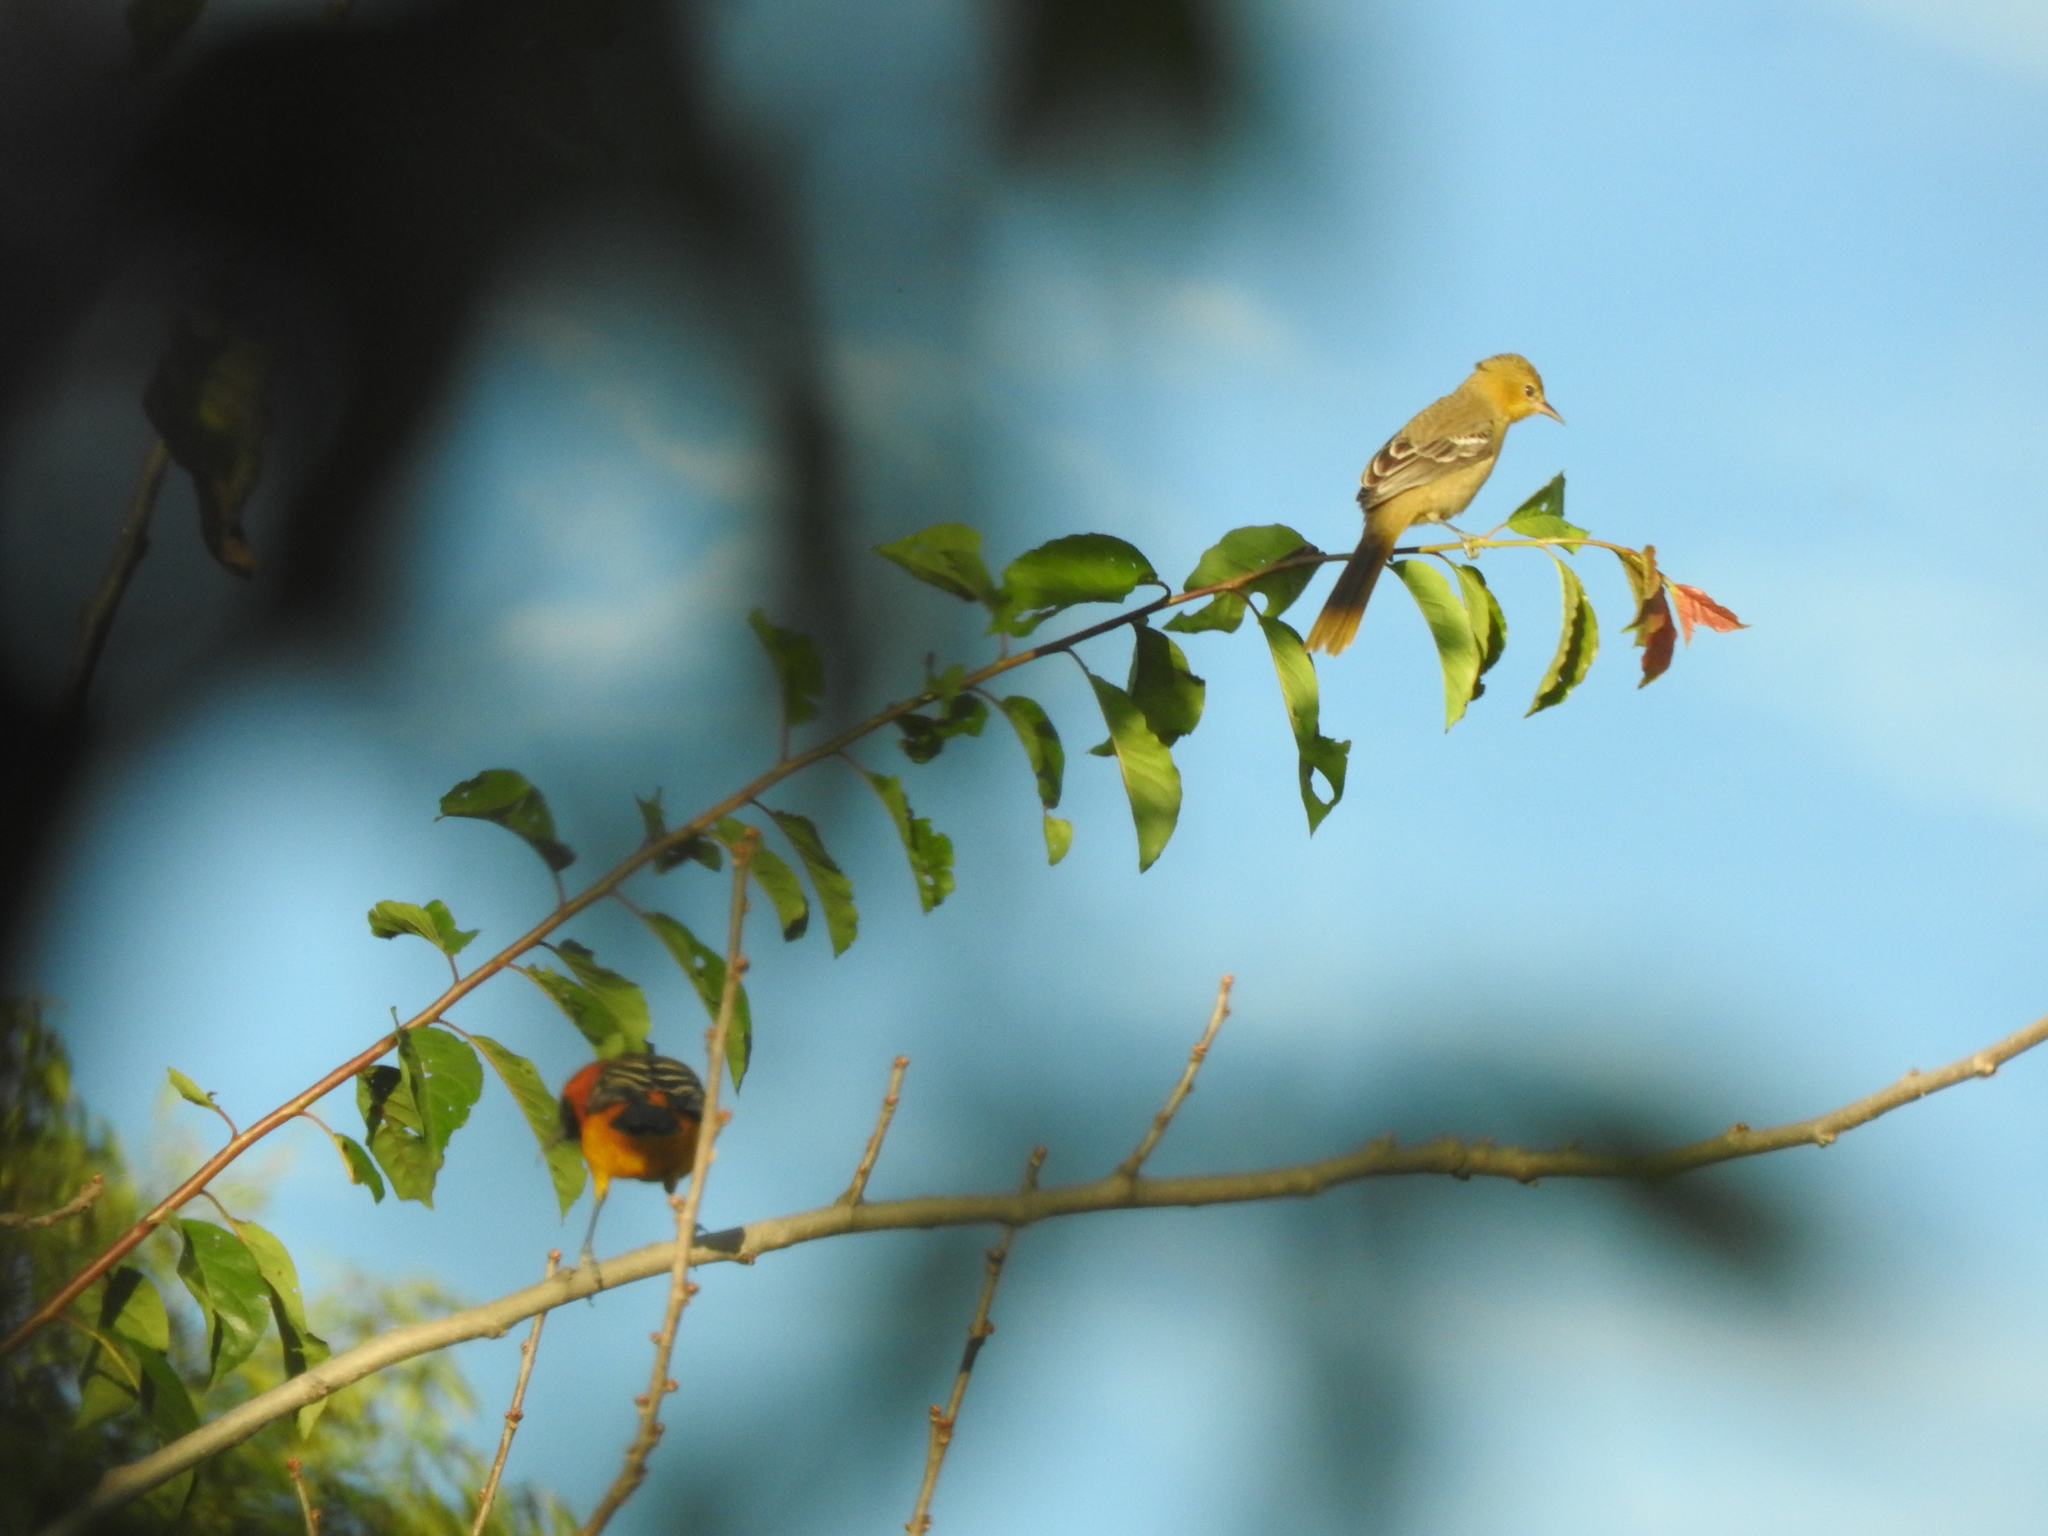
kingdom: Animalia
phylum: Chordata
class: Aves
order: Passeriformes
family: Icteridae
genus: Icterus
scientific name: Icterus cucullatus
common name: Hooded oriole
